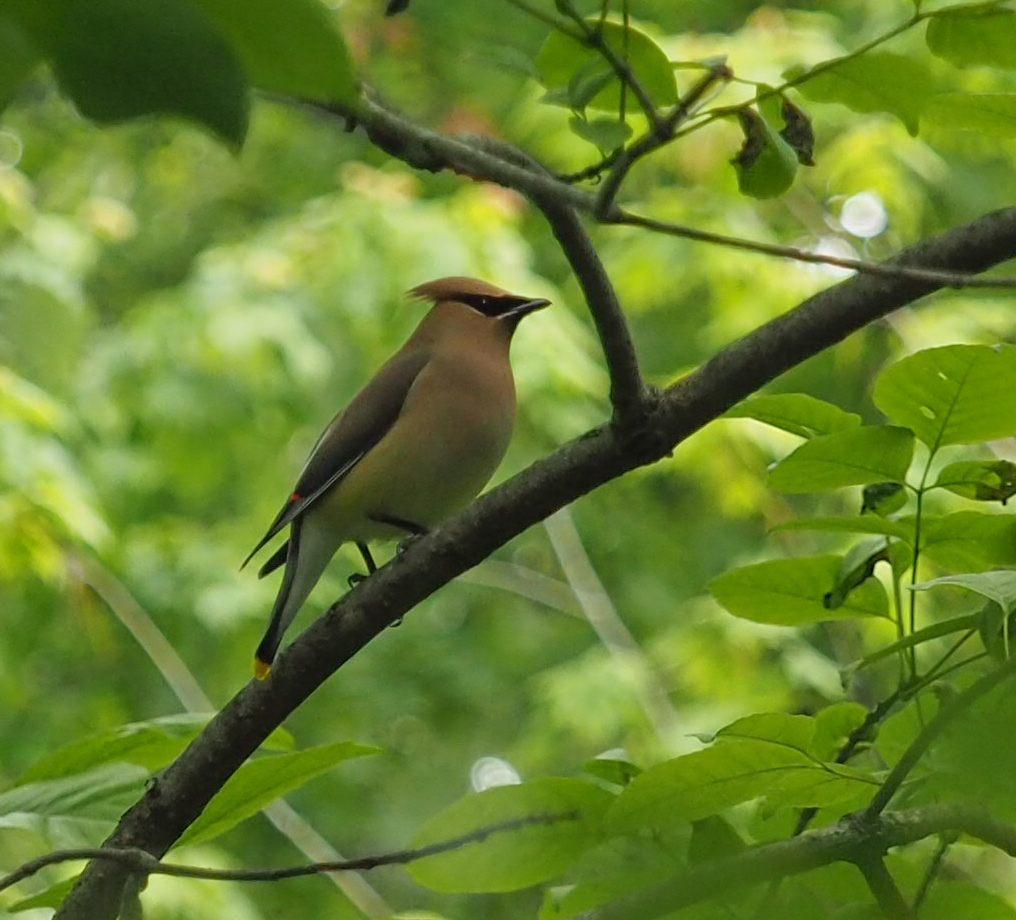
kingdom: Animalia
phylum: Chordata
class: Aves
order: Passeriformes
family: Bombycillidae
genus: Bombycilla
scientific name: Bombycilla cedrorum
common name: Cedar waxwing
